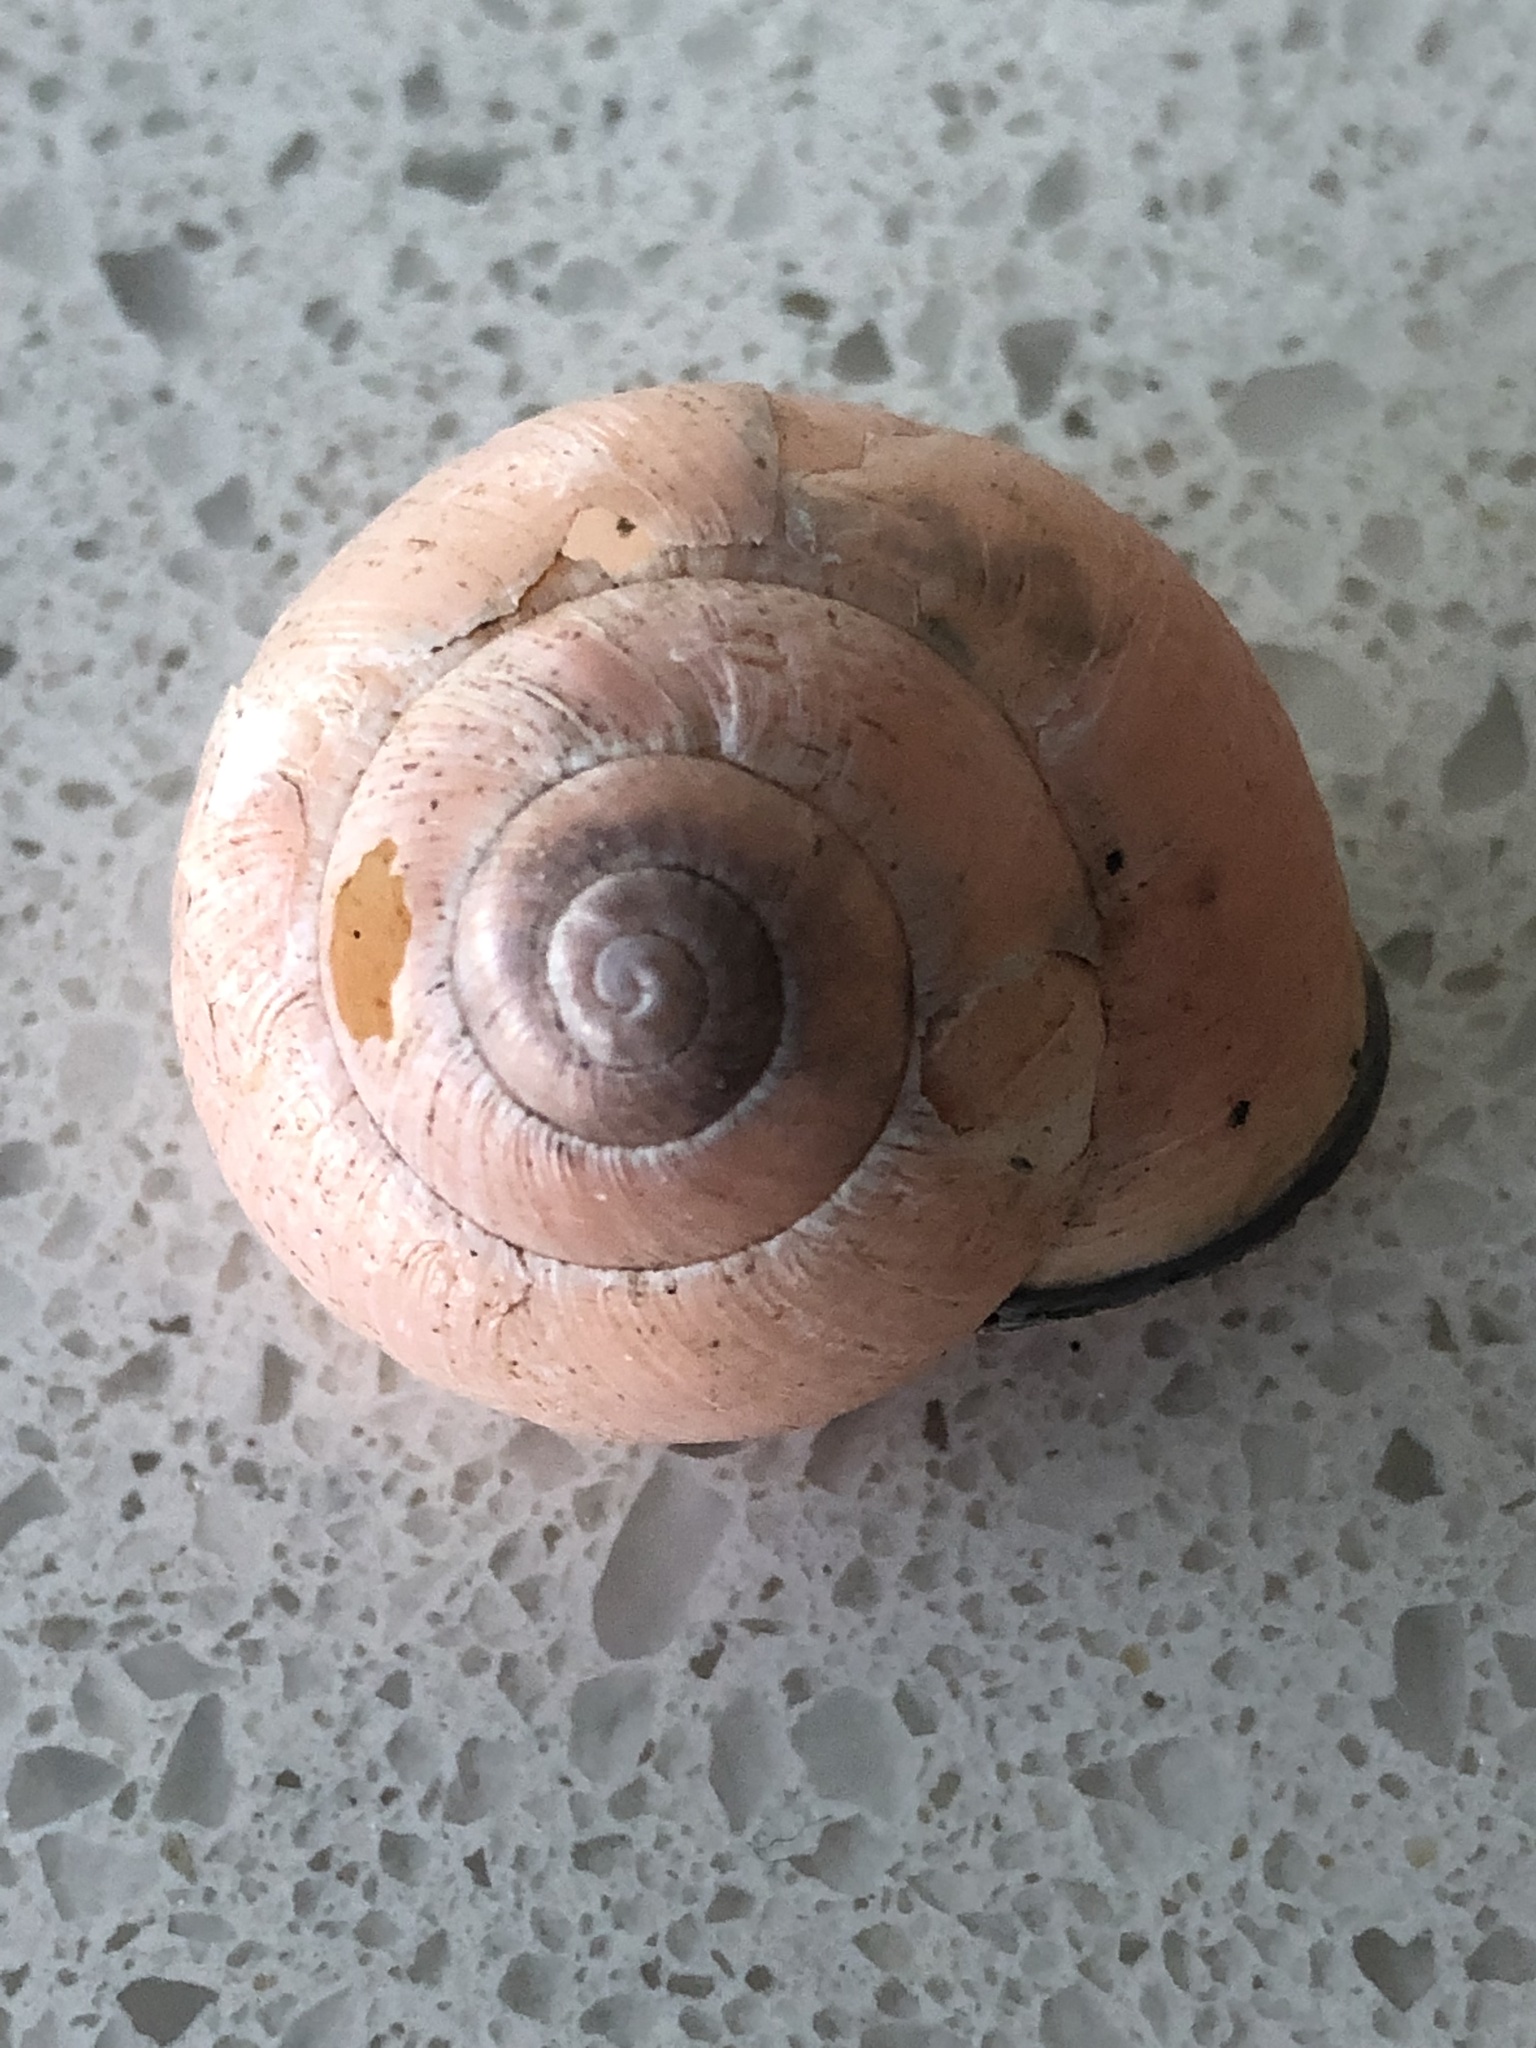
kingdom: Animalia
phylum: Mollusca
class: Gastropoda
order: Stylommatophora
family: Helicidae
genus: Cepaea
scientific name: Cepaea nemoralis
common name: Grovesnail
